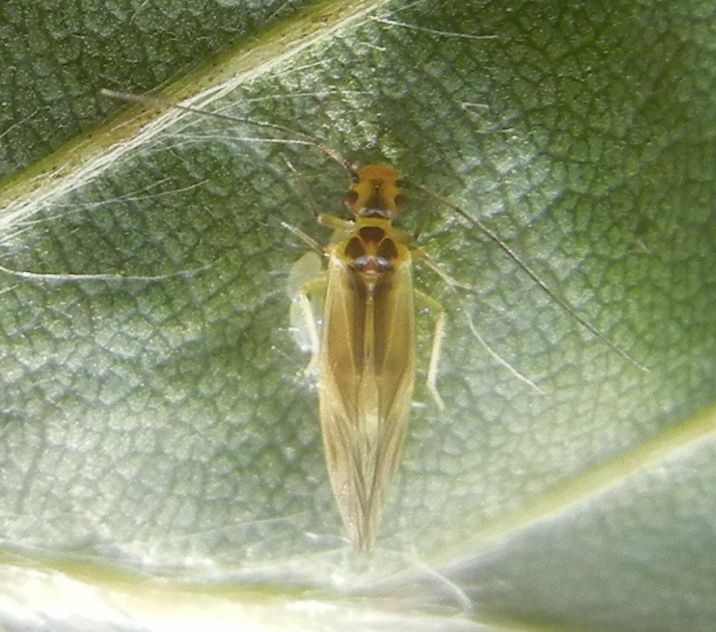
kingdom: Animalia
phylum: Arthropoda
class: Insecta
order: Psocodea
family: Caeciliusidae
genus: Valenzuela
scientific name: Valenzuela flavidus
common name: Yellow barklouse
